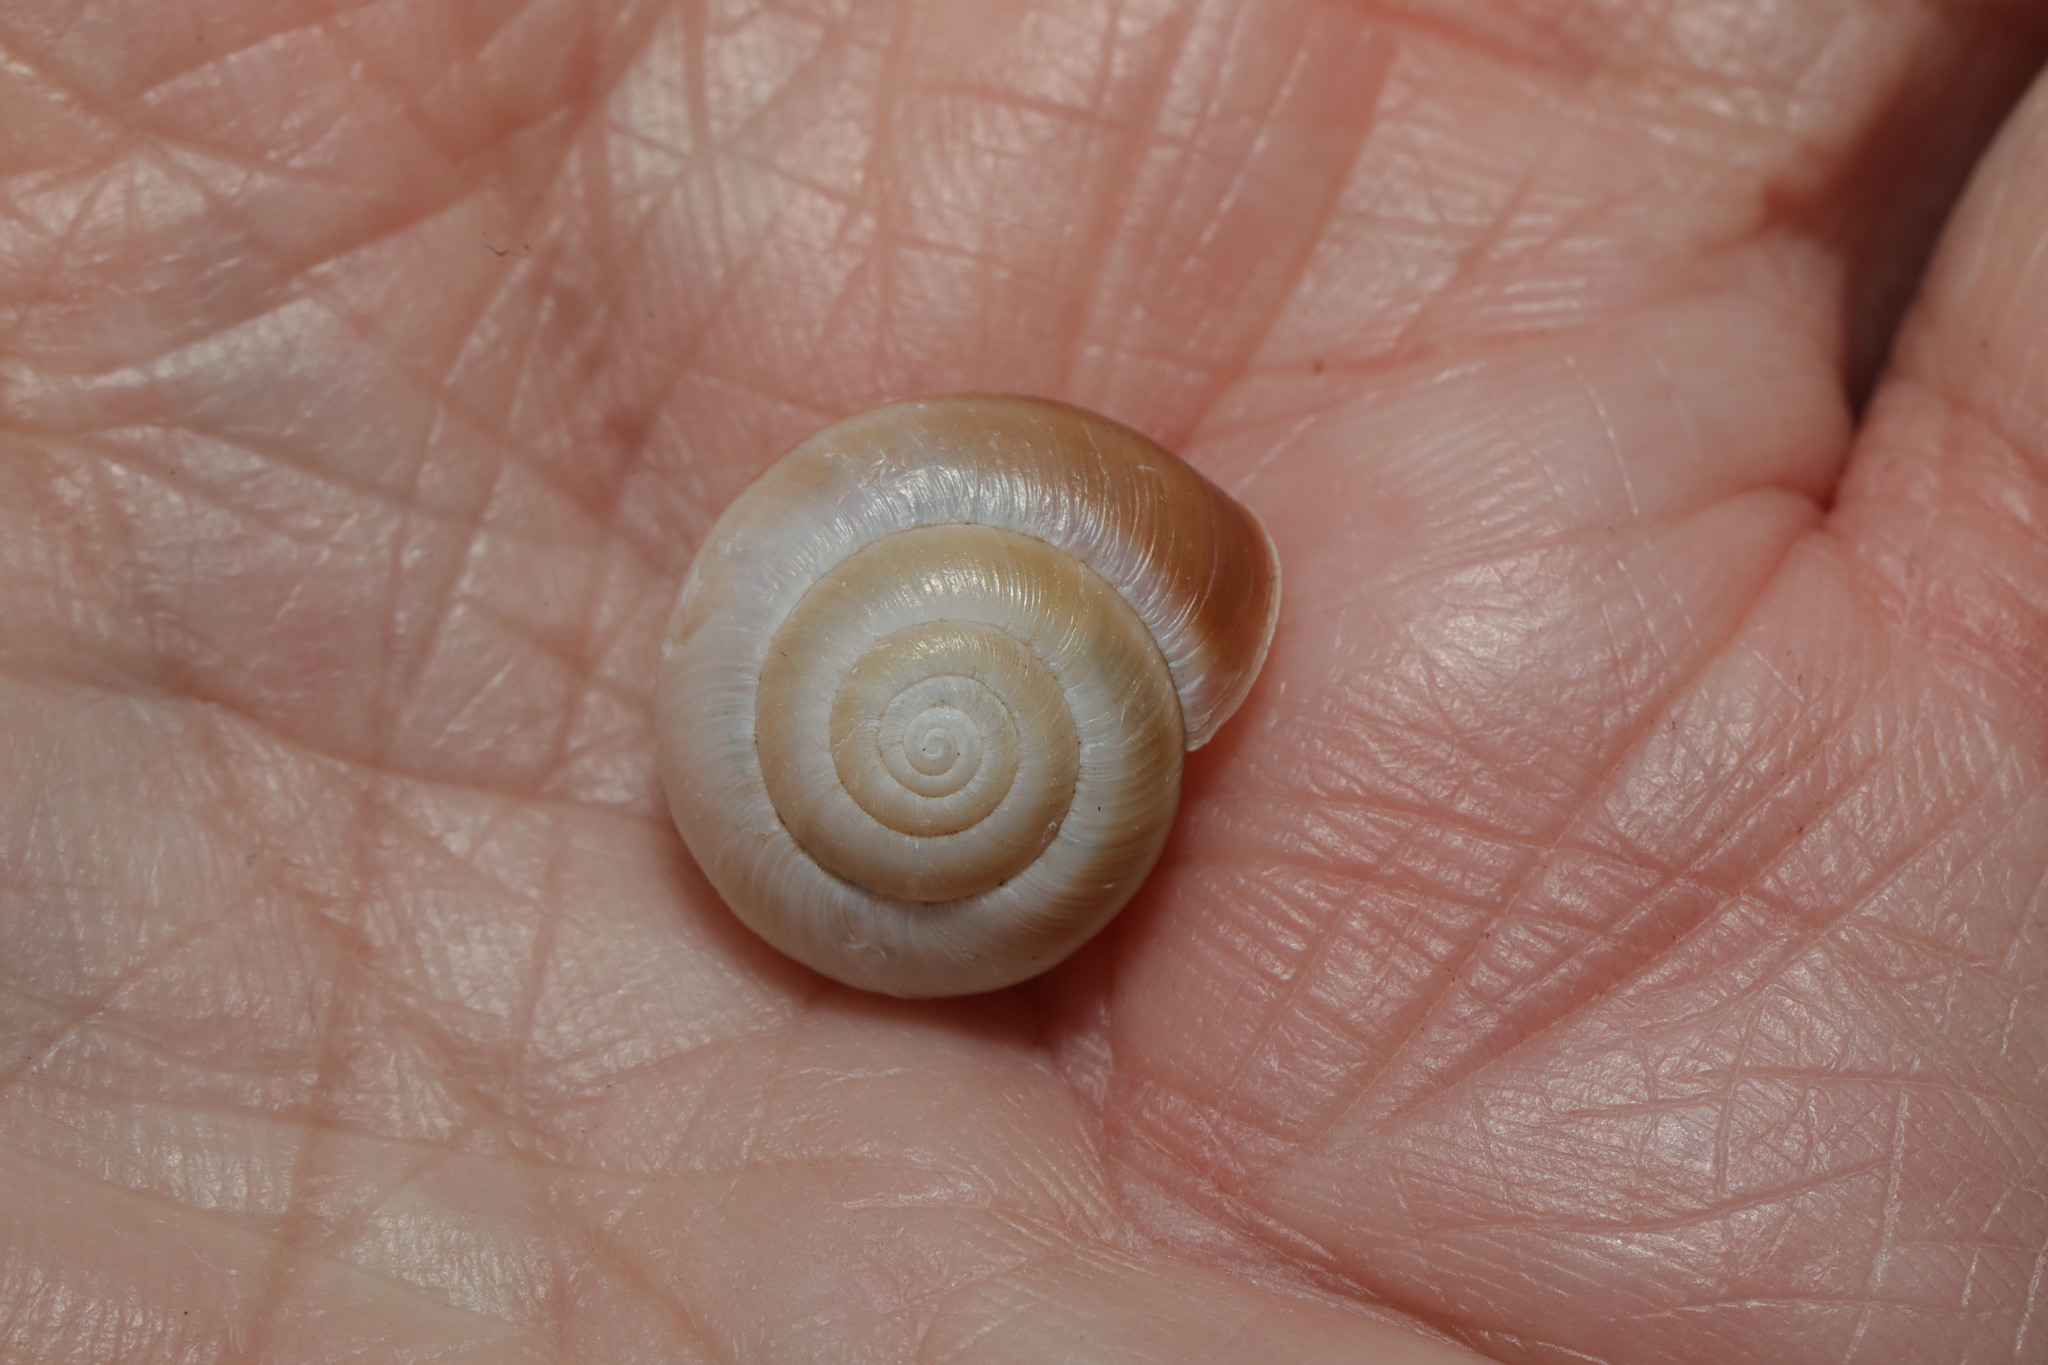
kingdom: Animalia
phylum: Mollusca
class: Gastropoda
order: Stylommatophora
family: Hygromiidae
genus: Monacha
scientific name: Monacha cantiana
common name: Kentish snail
